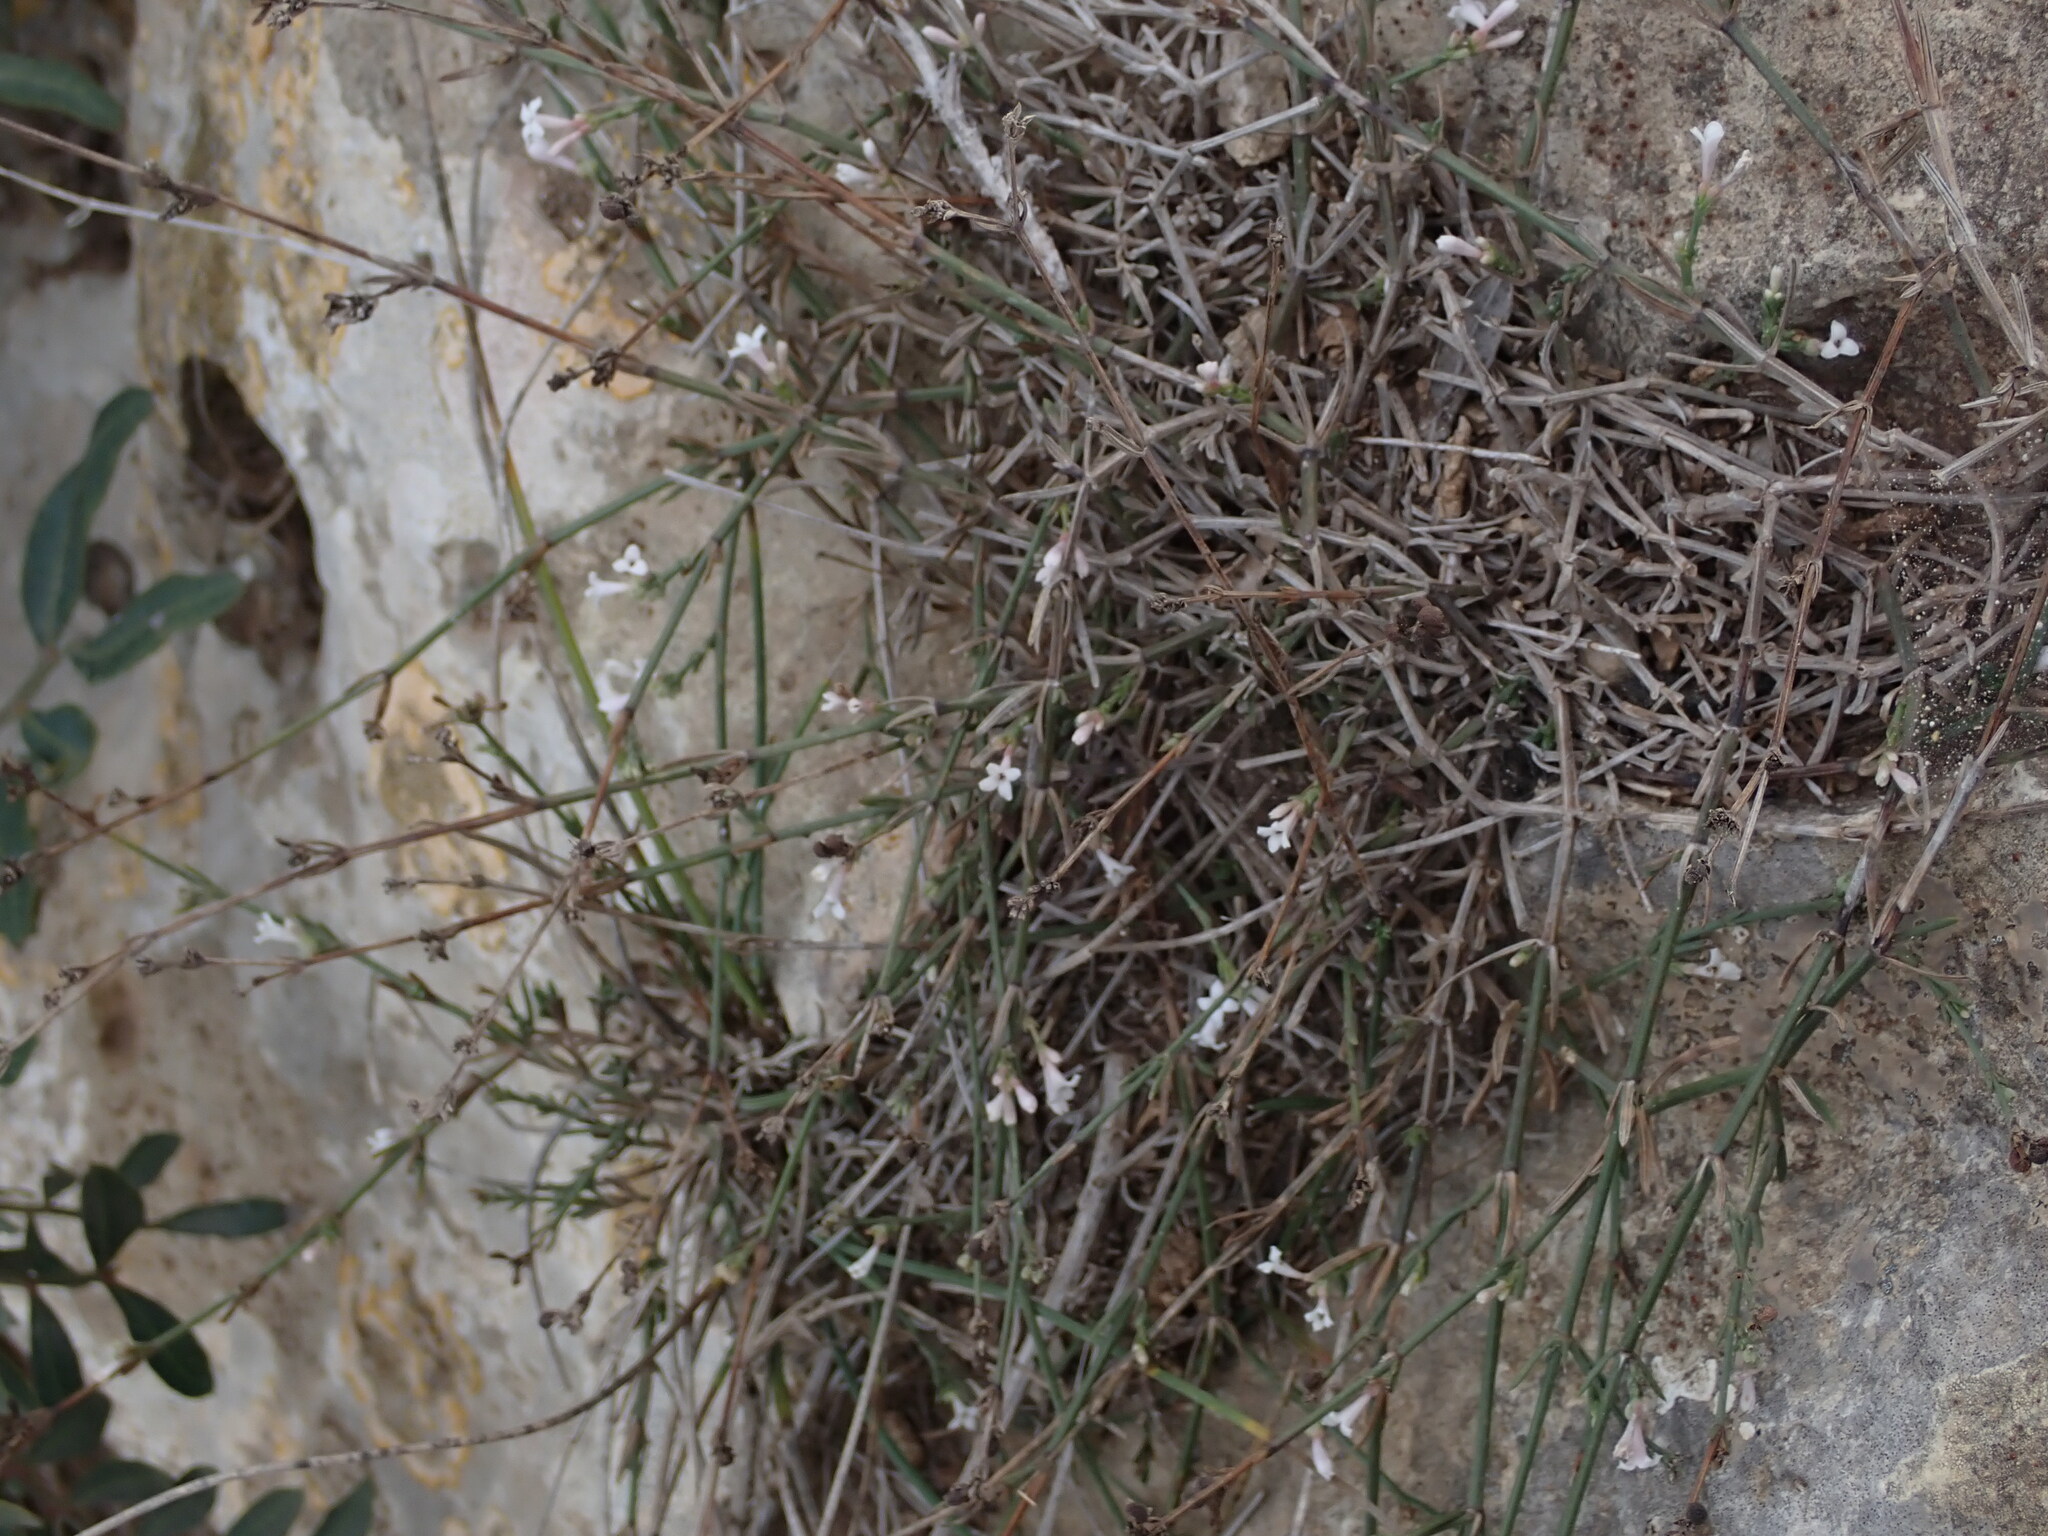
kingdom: Plantae
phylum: Tracheophyta
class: Magnoliopsida
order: Gentianales
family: Rubiaceae
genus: Cynanchica
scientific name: Cynanchica pyrenaica
